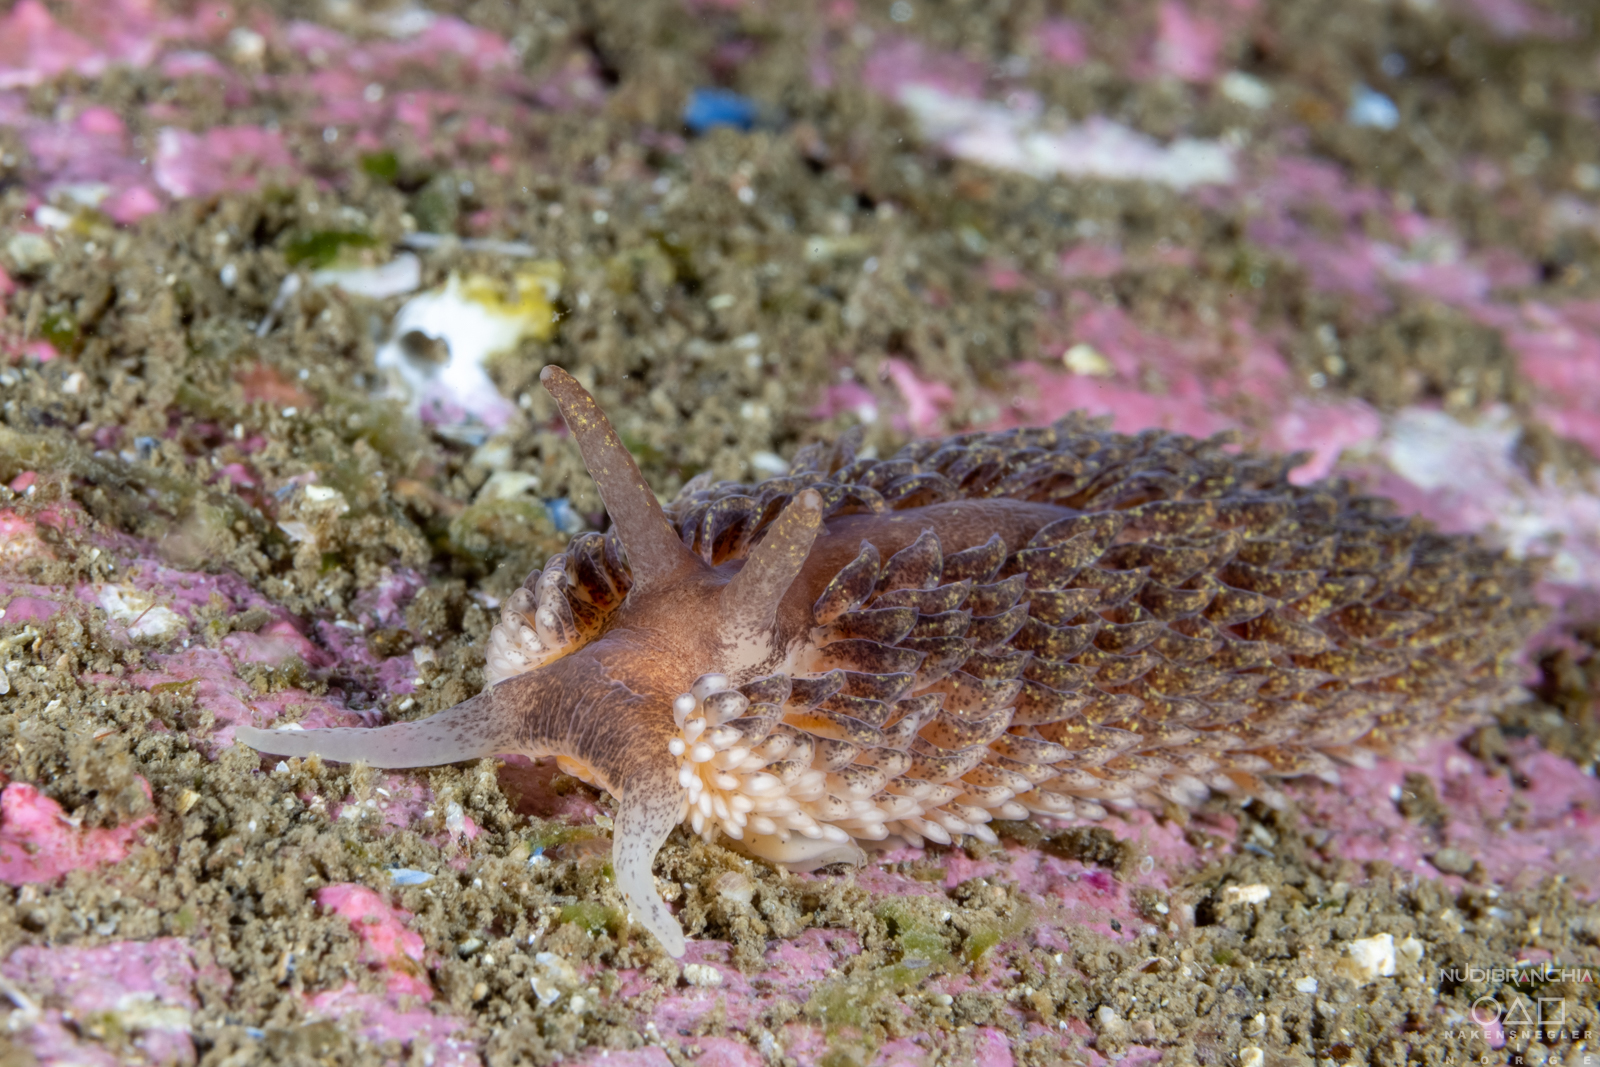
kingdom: Animalia
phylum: Mollusca
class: Gastropoda
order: Nudibranchia
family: Aeolidiidae
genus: Aeolidia
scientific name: Aeolidia papillosa
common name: Common grey sea slug
